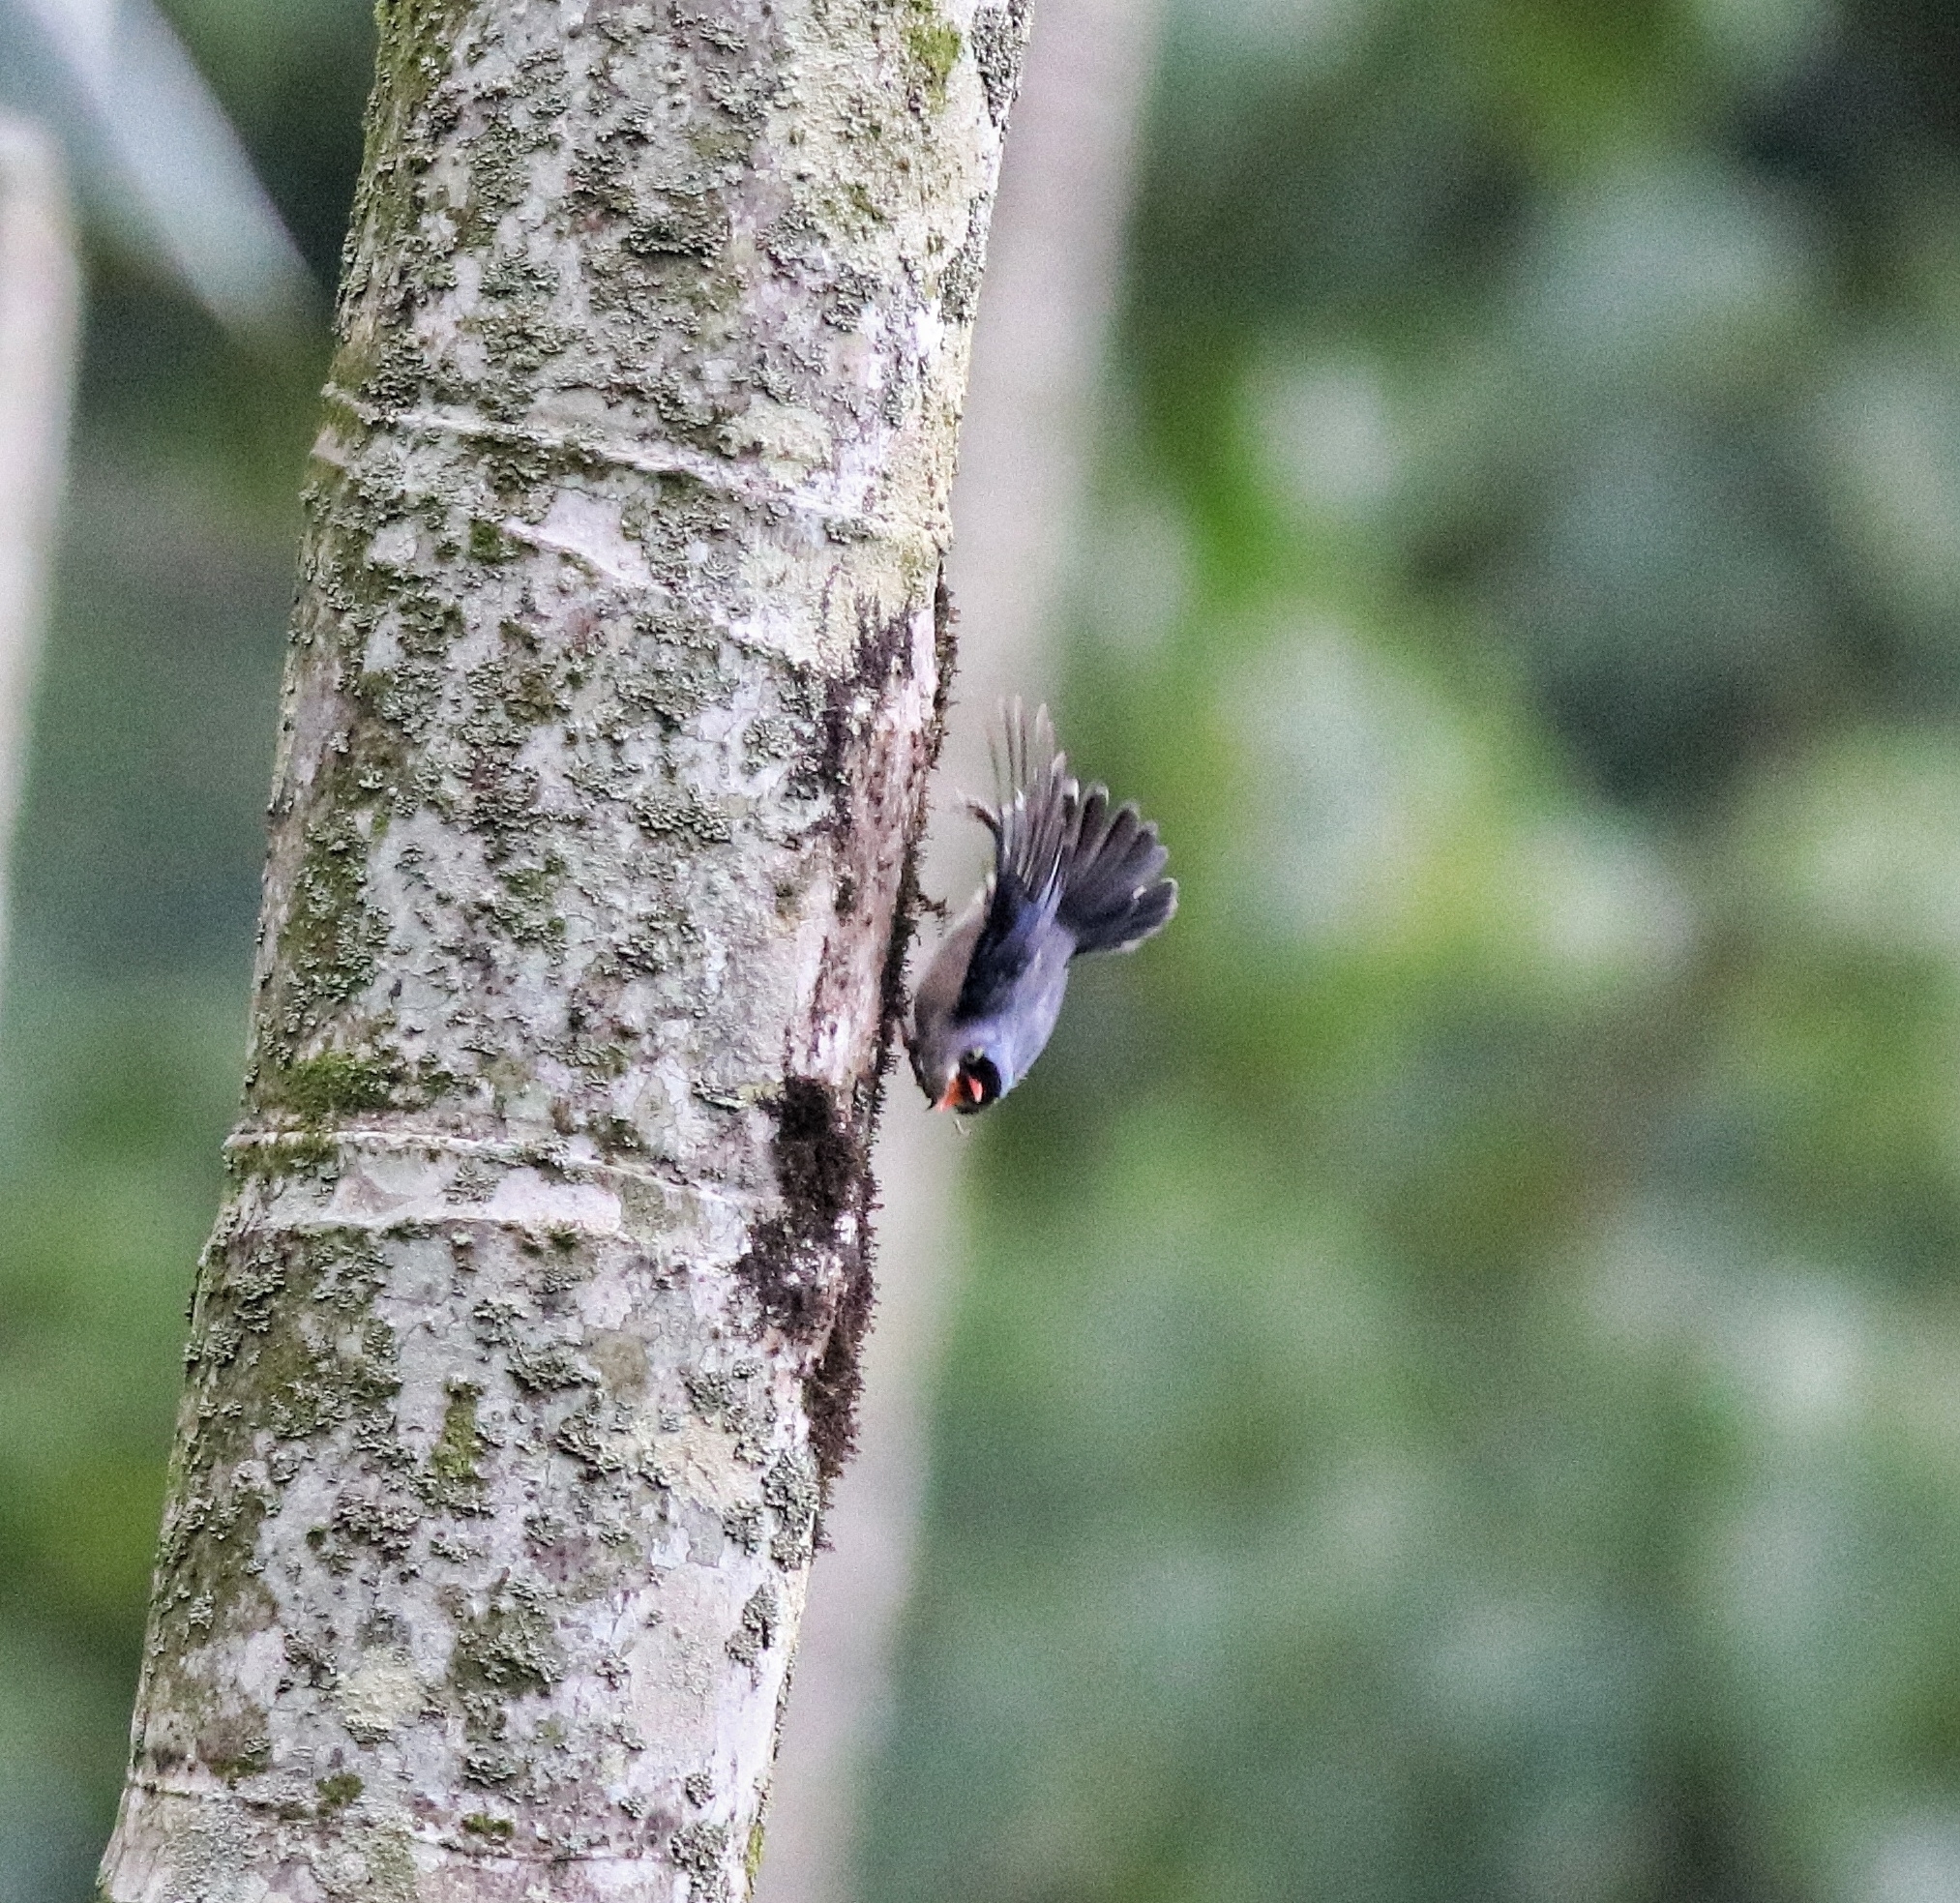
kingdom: Animalia
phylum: Chordata
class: Aves
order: Passeriformes
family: Sittidae
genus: Sitta
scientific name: Sitta frontalis
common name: Velvet-fronted nuthatch
